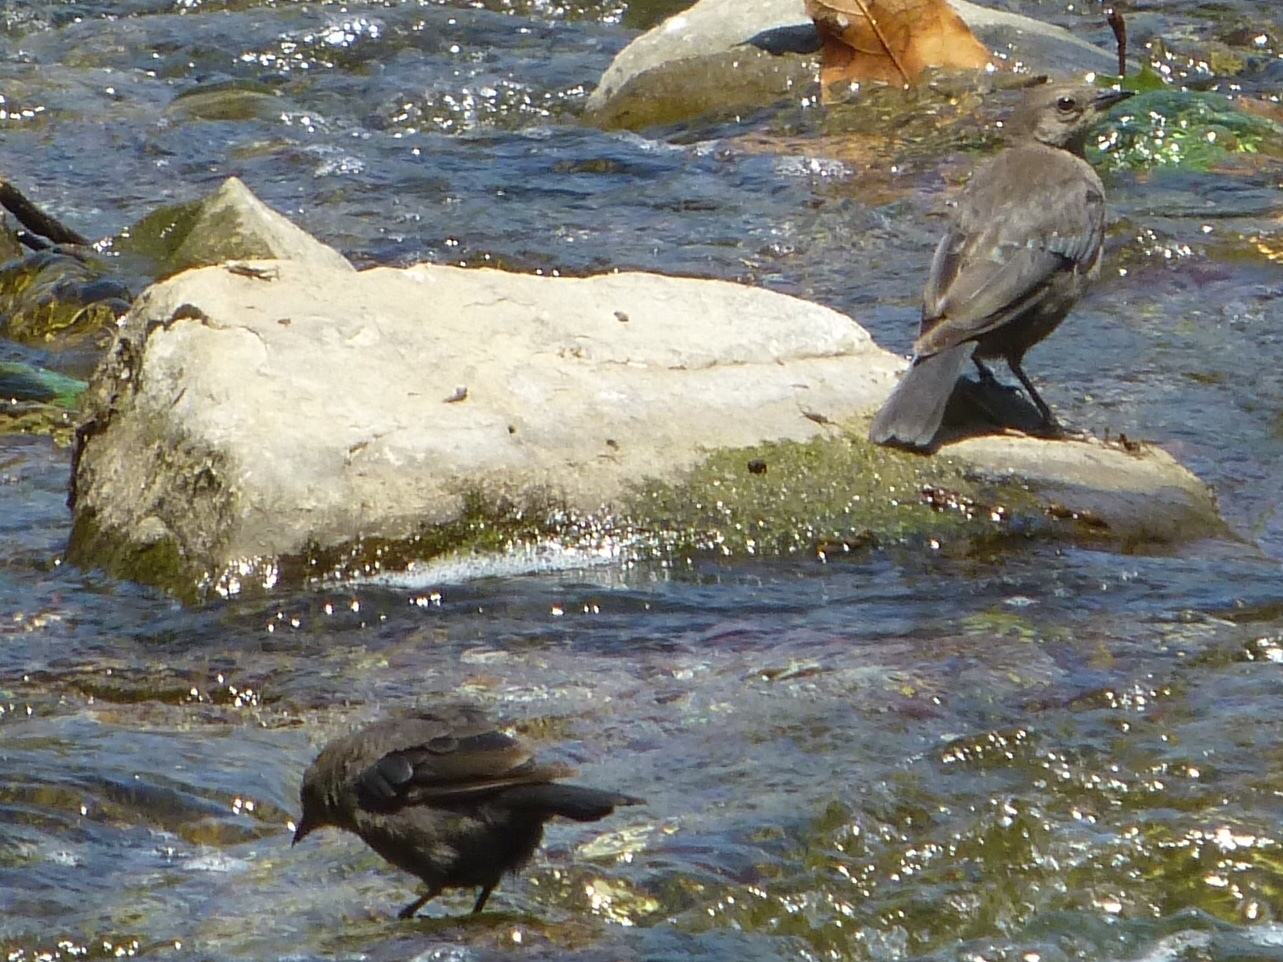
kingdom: Animalia
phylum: Chordata
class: Aves
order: Passeriformes
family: Icteridae
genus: Euphagus
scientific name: Euphagus cyanocephalus
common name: Brewer's blackbird
